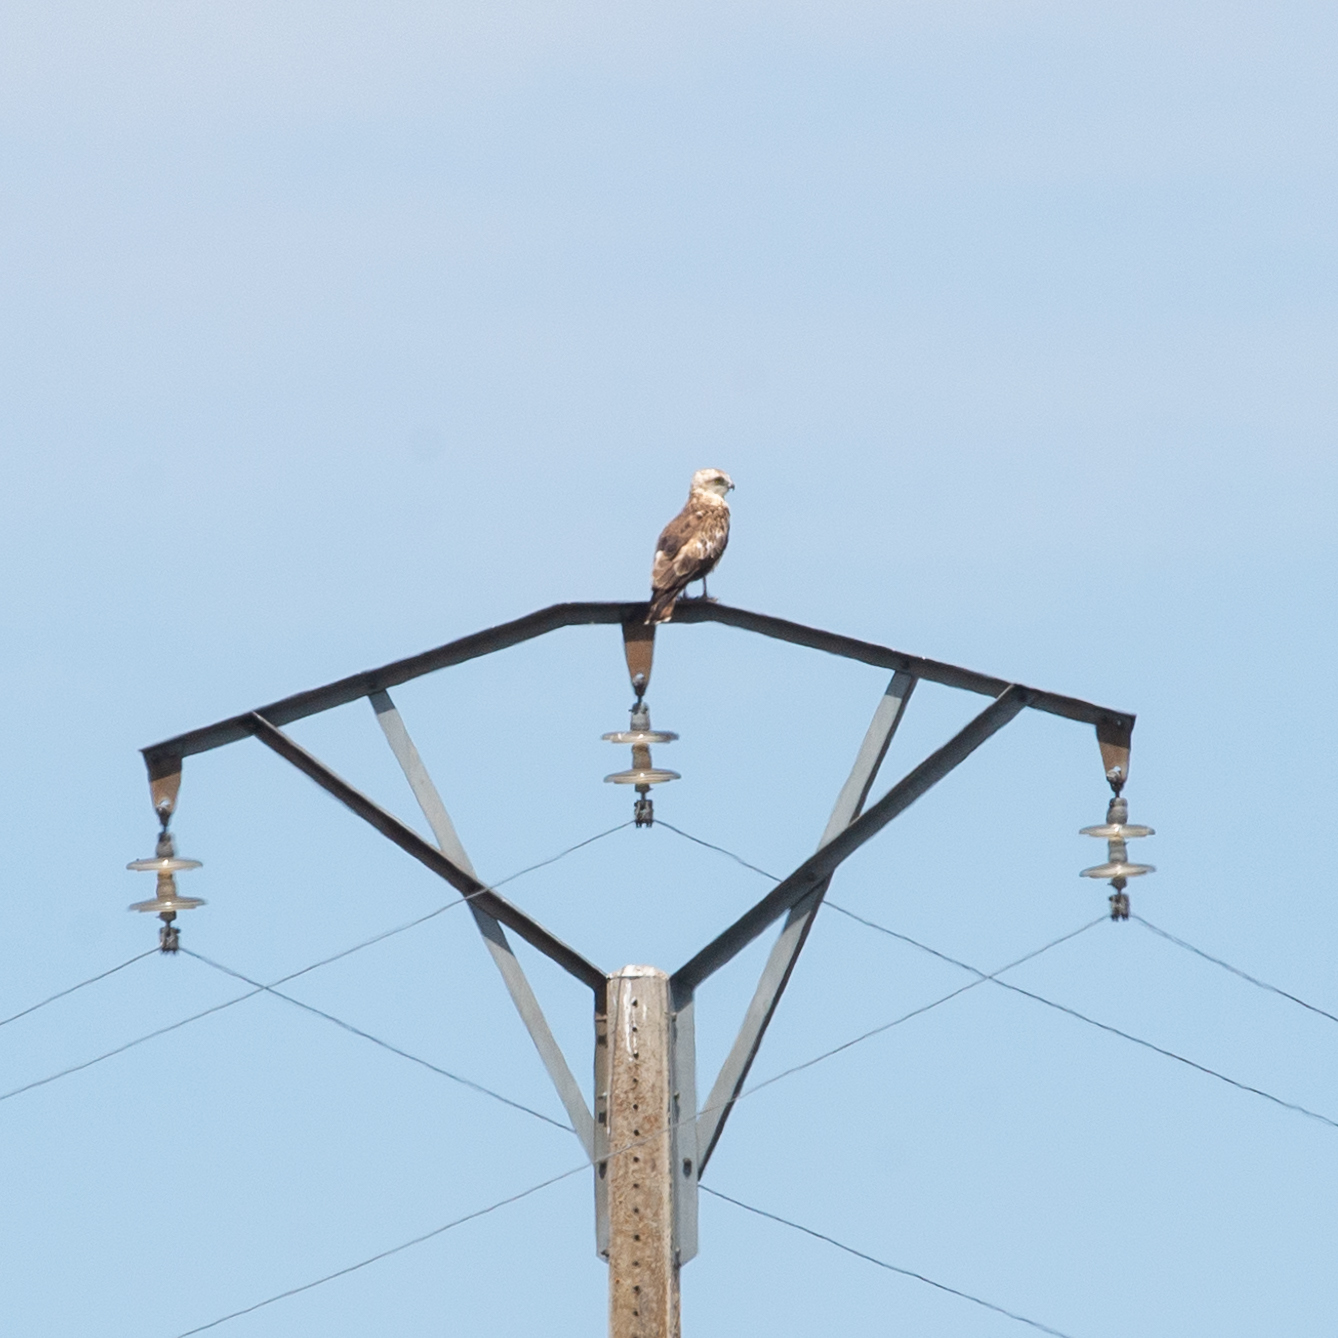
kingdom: Animalia
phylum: Chordata
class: Aves
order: Accipitriformes
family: Accipitridae
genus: Circaetus
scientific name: Circaetus gallicus
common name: Short-toed snake eagle
